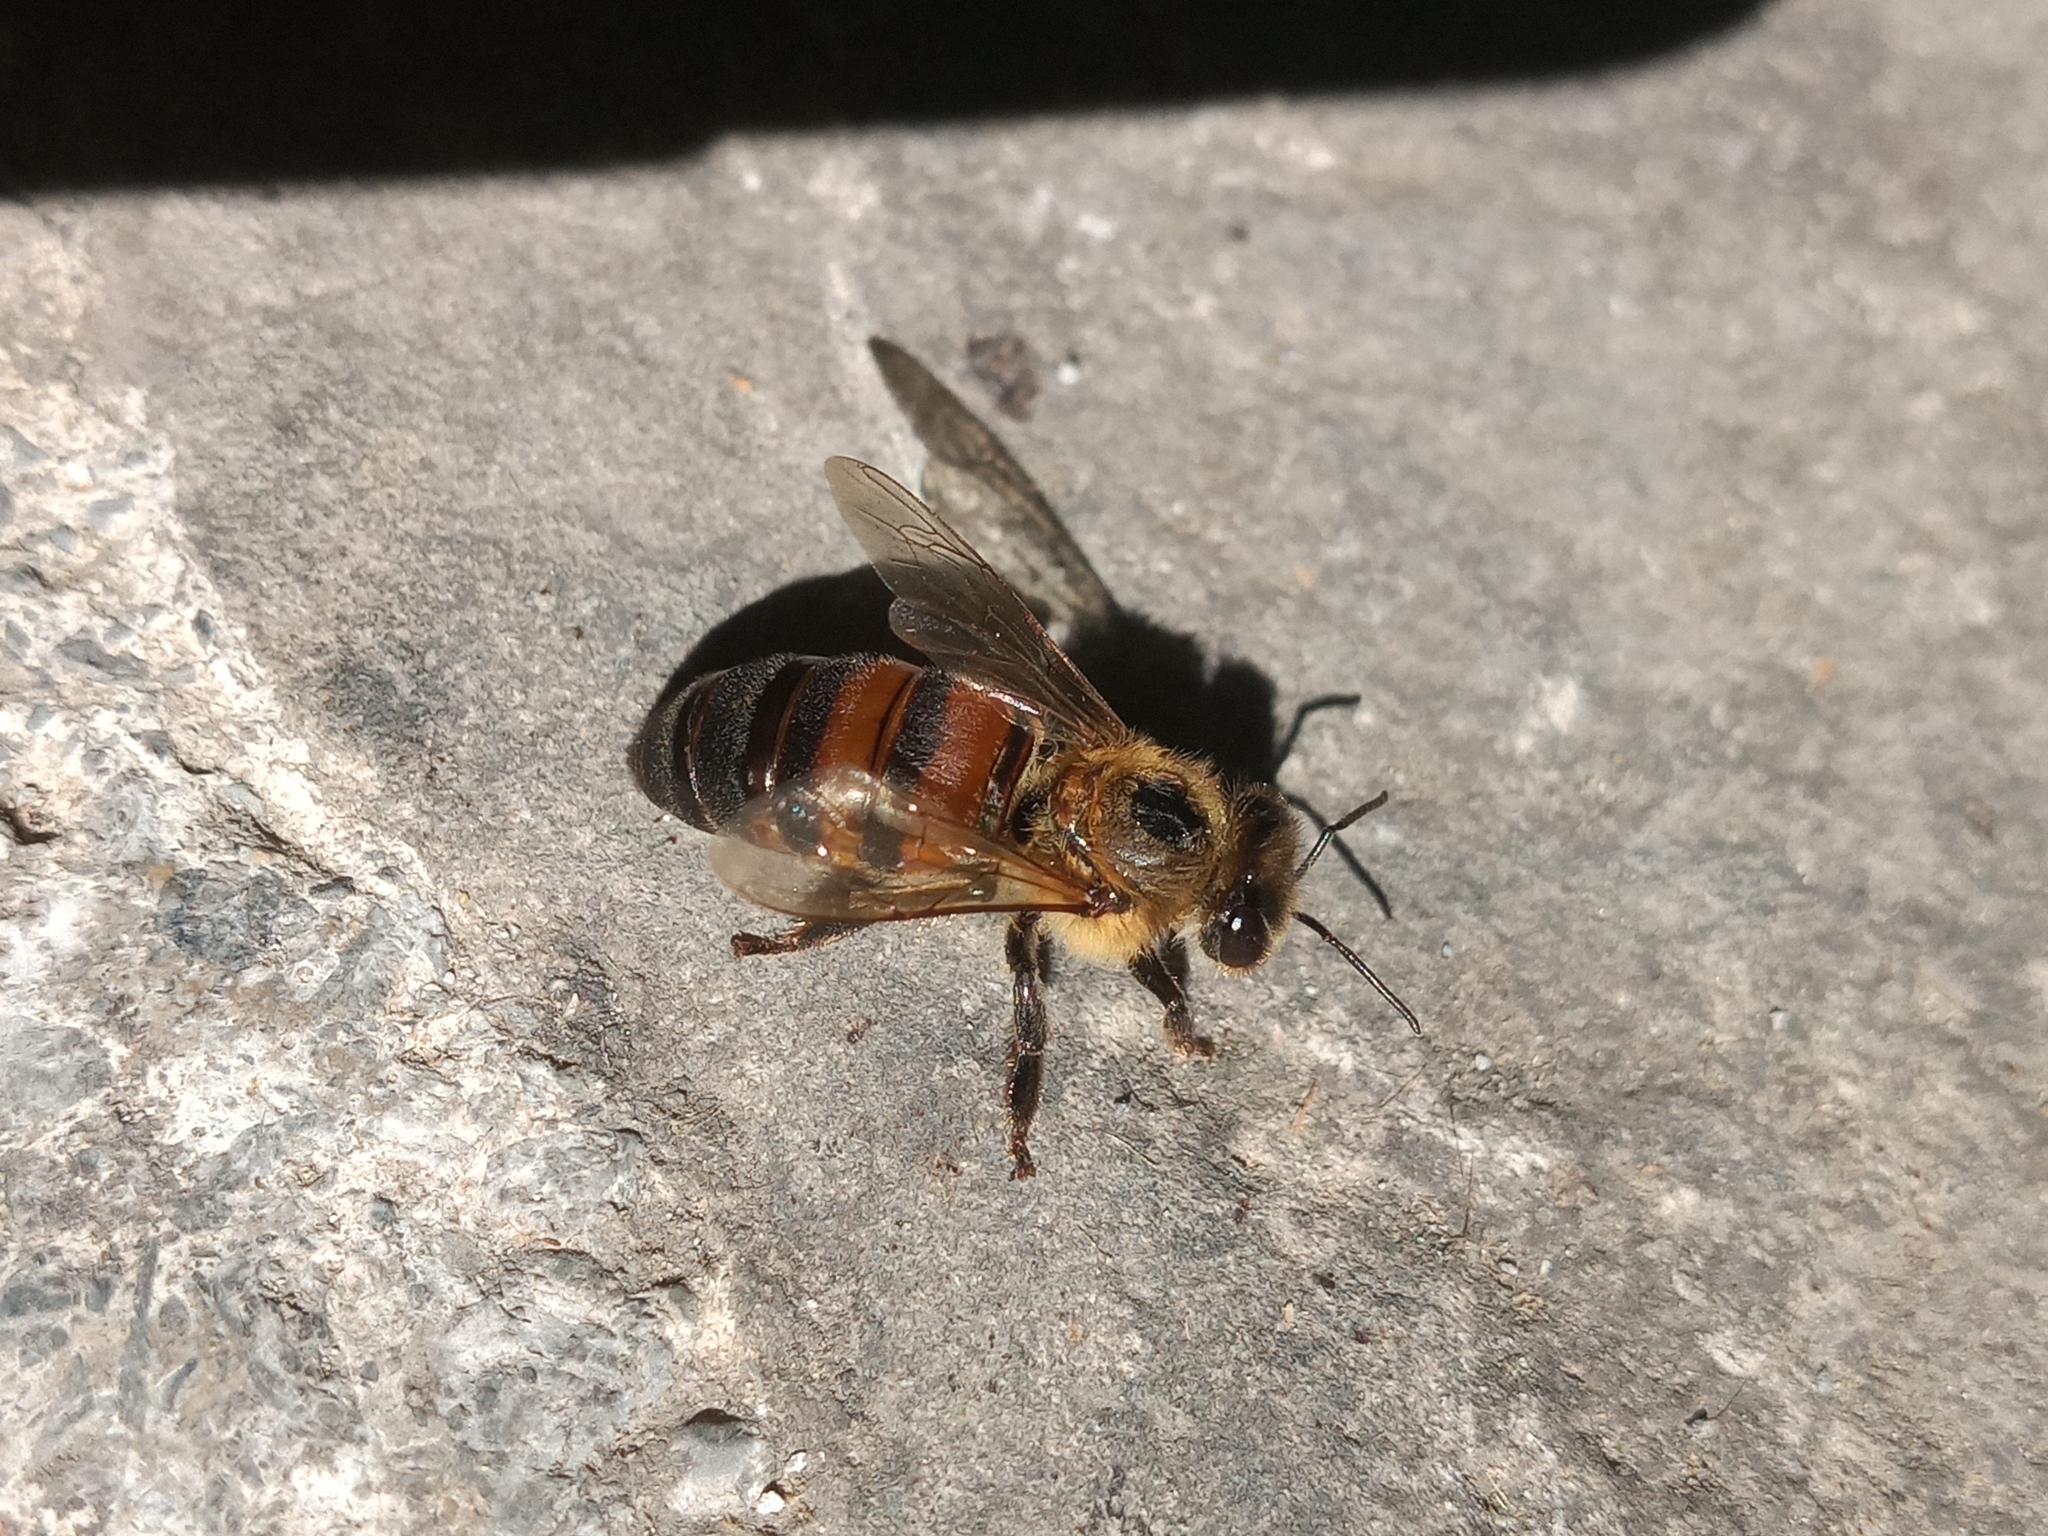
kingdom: Animalia
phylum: Arthropoda
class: Insecta
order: Hymenoptera
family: Apidae
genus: Apis
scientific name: Apis mellifera
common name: Honey bee
